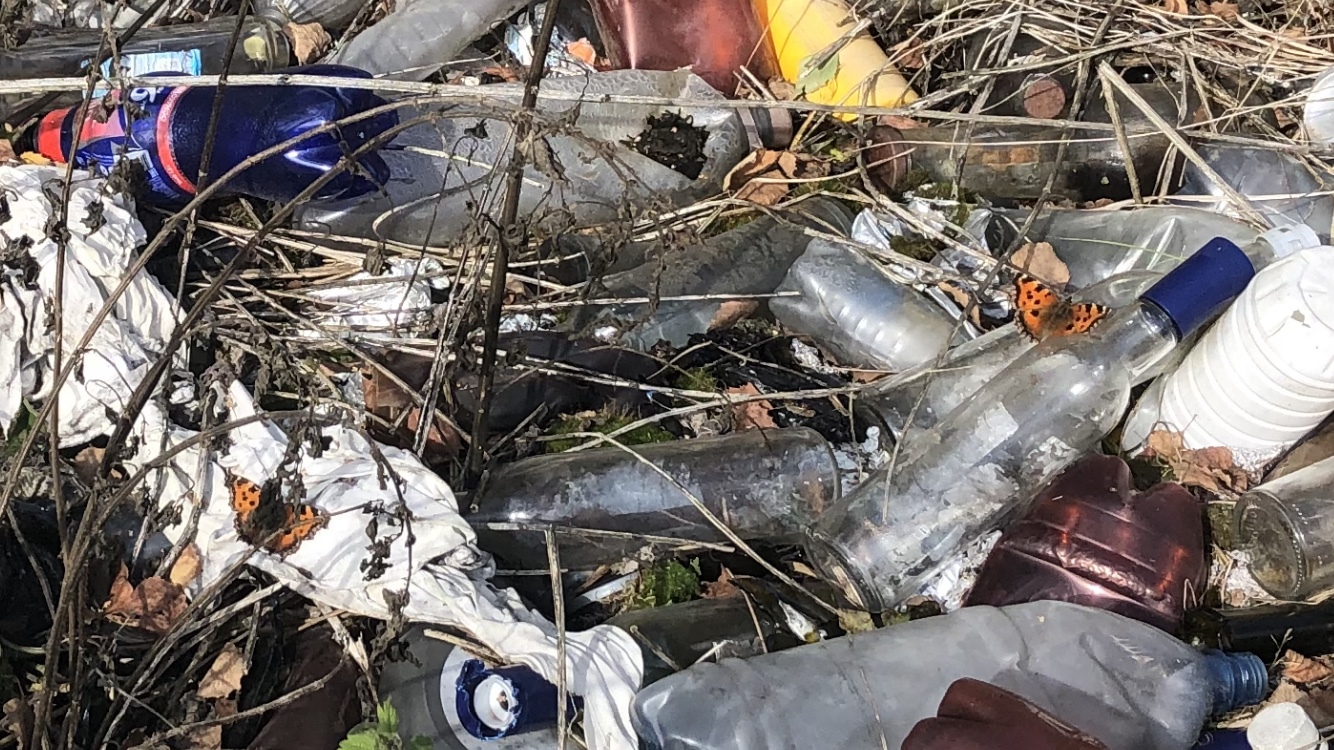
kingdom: Animalia
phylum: Arthropoda
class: Insecta
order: Lepidoptera
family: Nymphalidae
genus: Nymphalis
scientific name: Nymphalis xanthomelas
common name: Scarce tortoiseshell
